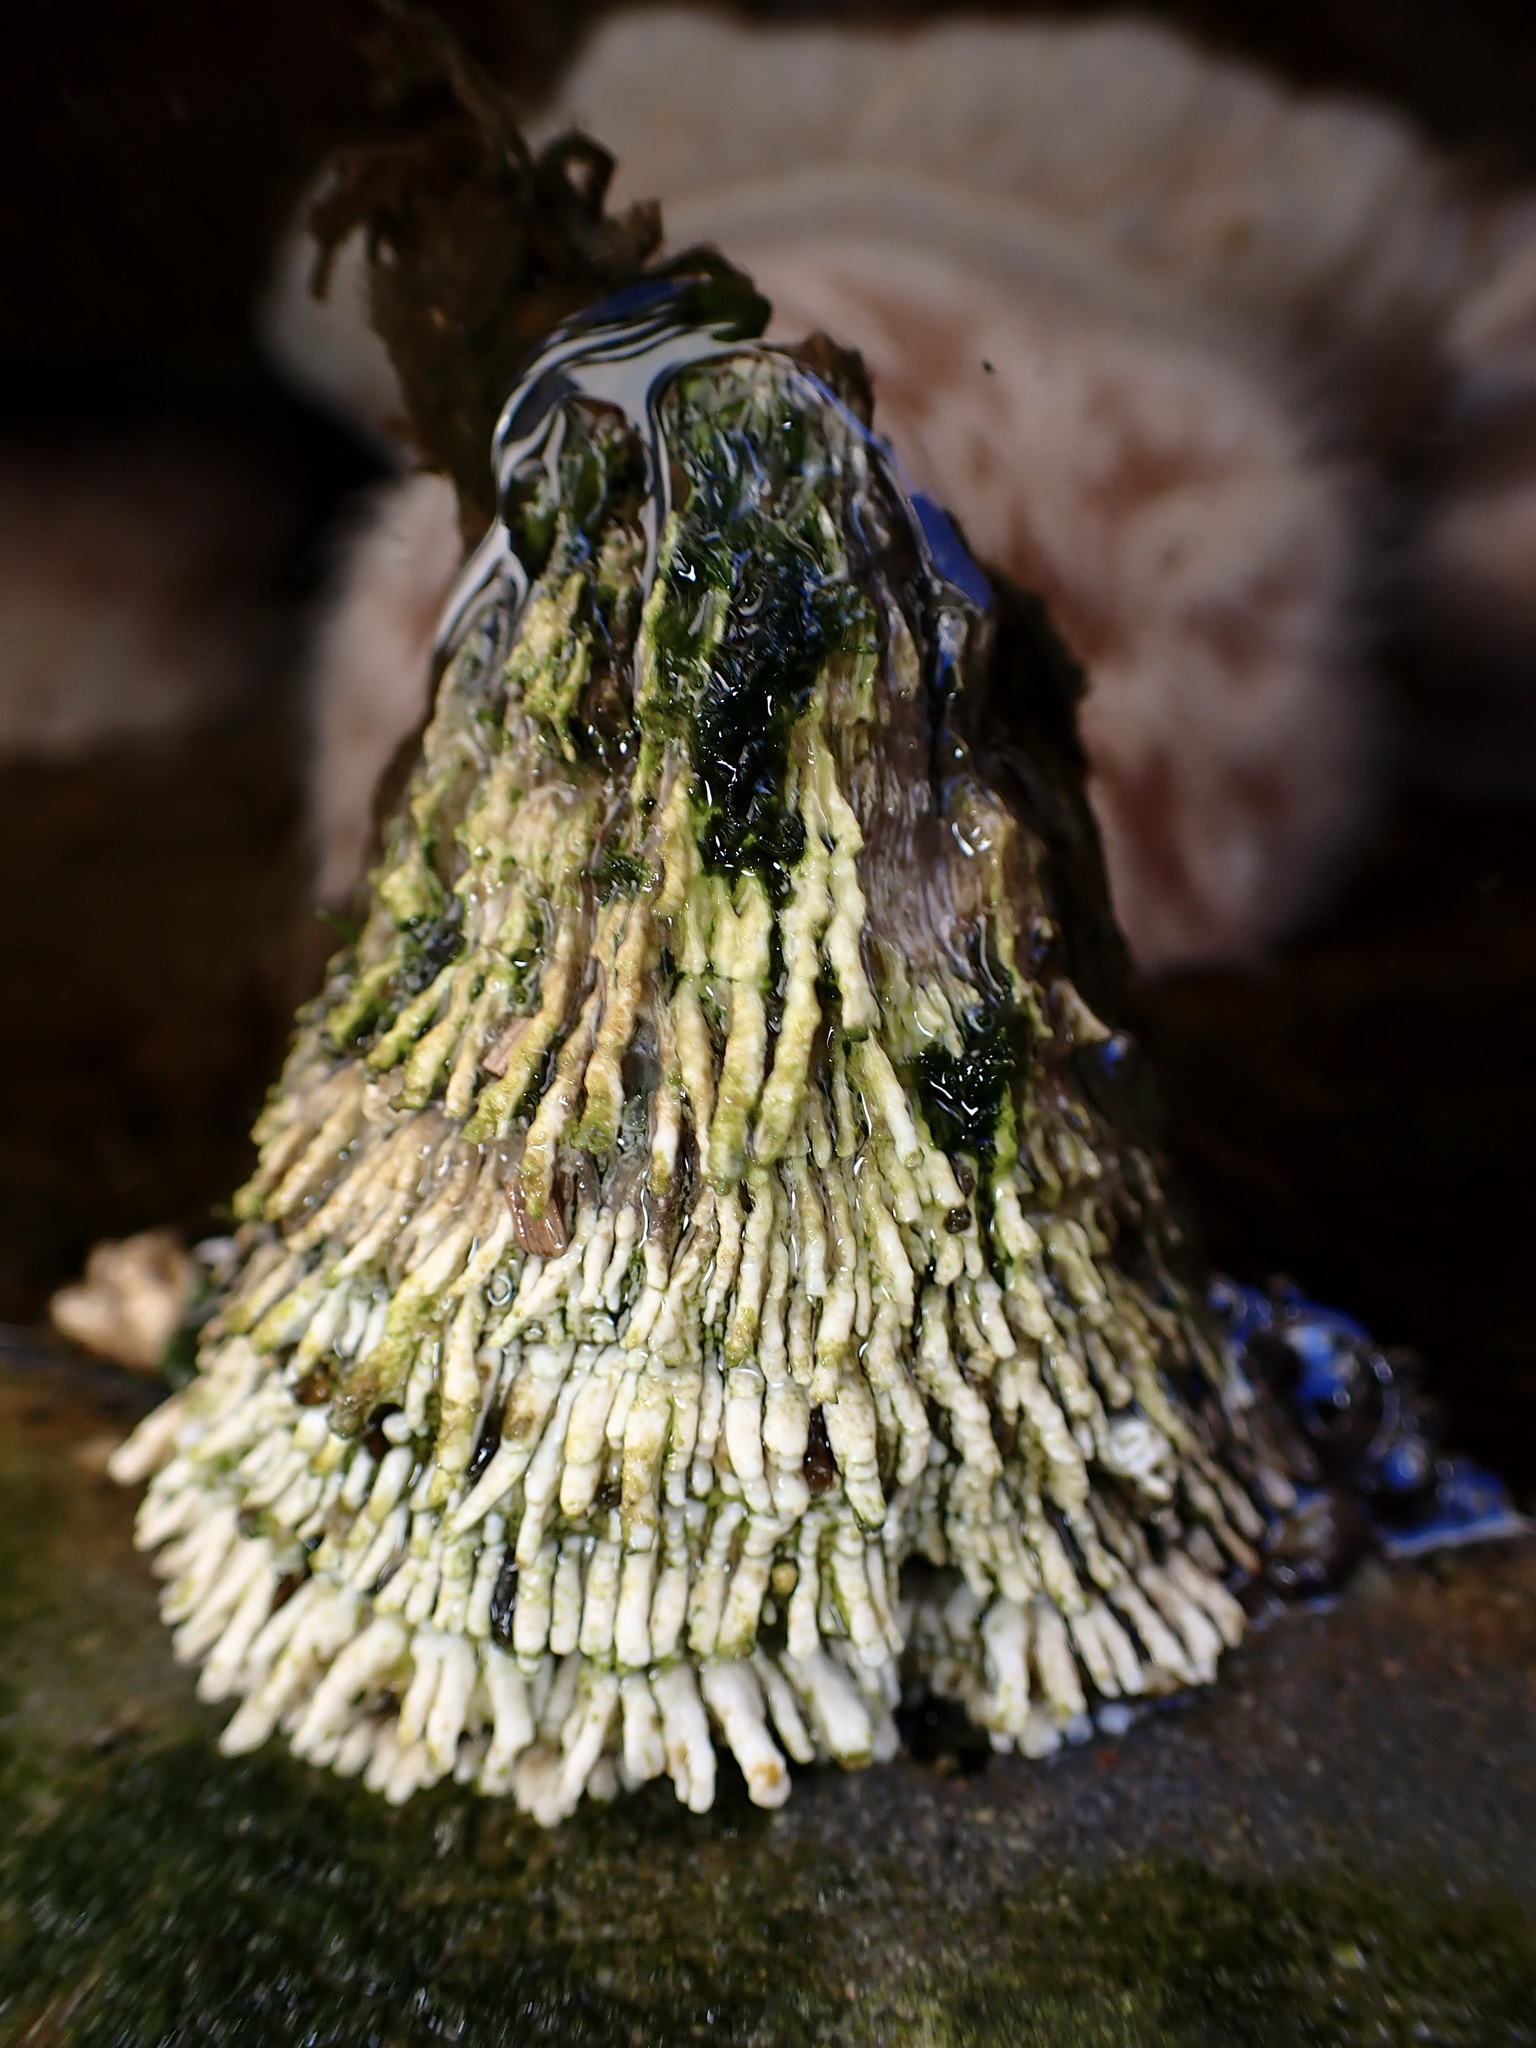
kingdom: Animalia
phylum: Arthropoda
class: Maxillopoda
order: Sessilia
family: Archaeobalanidae
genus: Semibalanus
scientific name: Semibalanus cariosus
